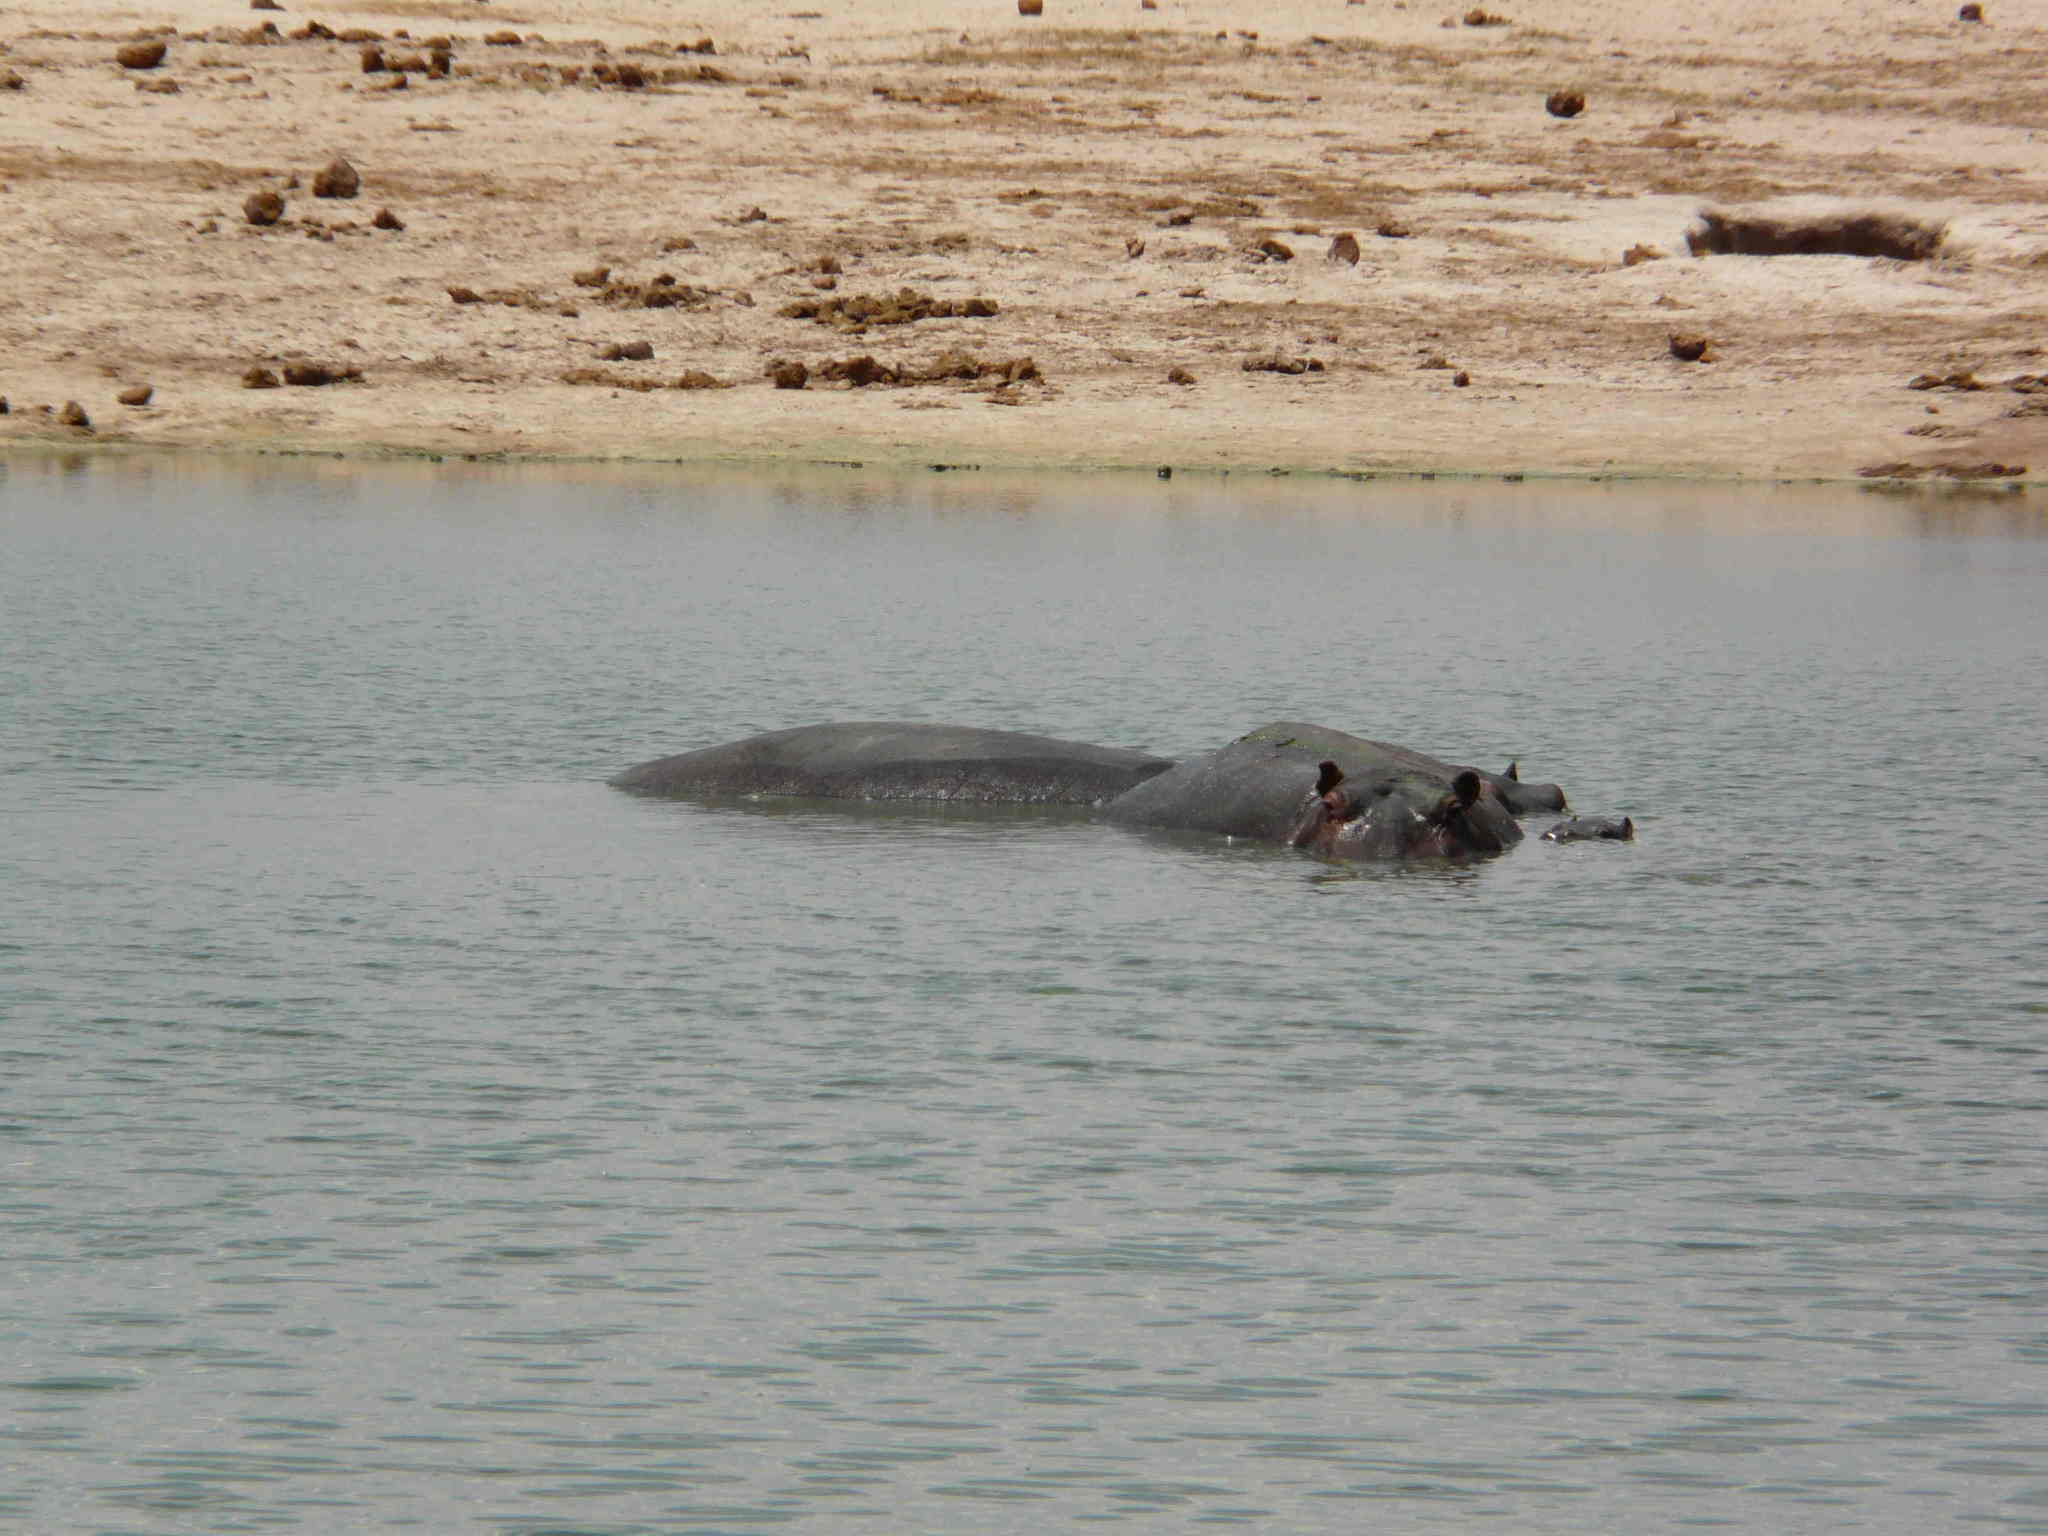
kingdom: Animalia
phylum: Chordata
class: Mammalia
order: Artiodactyla
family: Hippopotamidae
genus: Hippopotamus
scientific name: Hippopotamus amphibius
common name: Common hippopotamus
